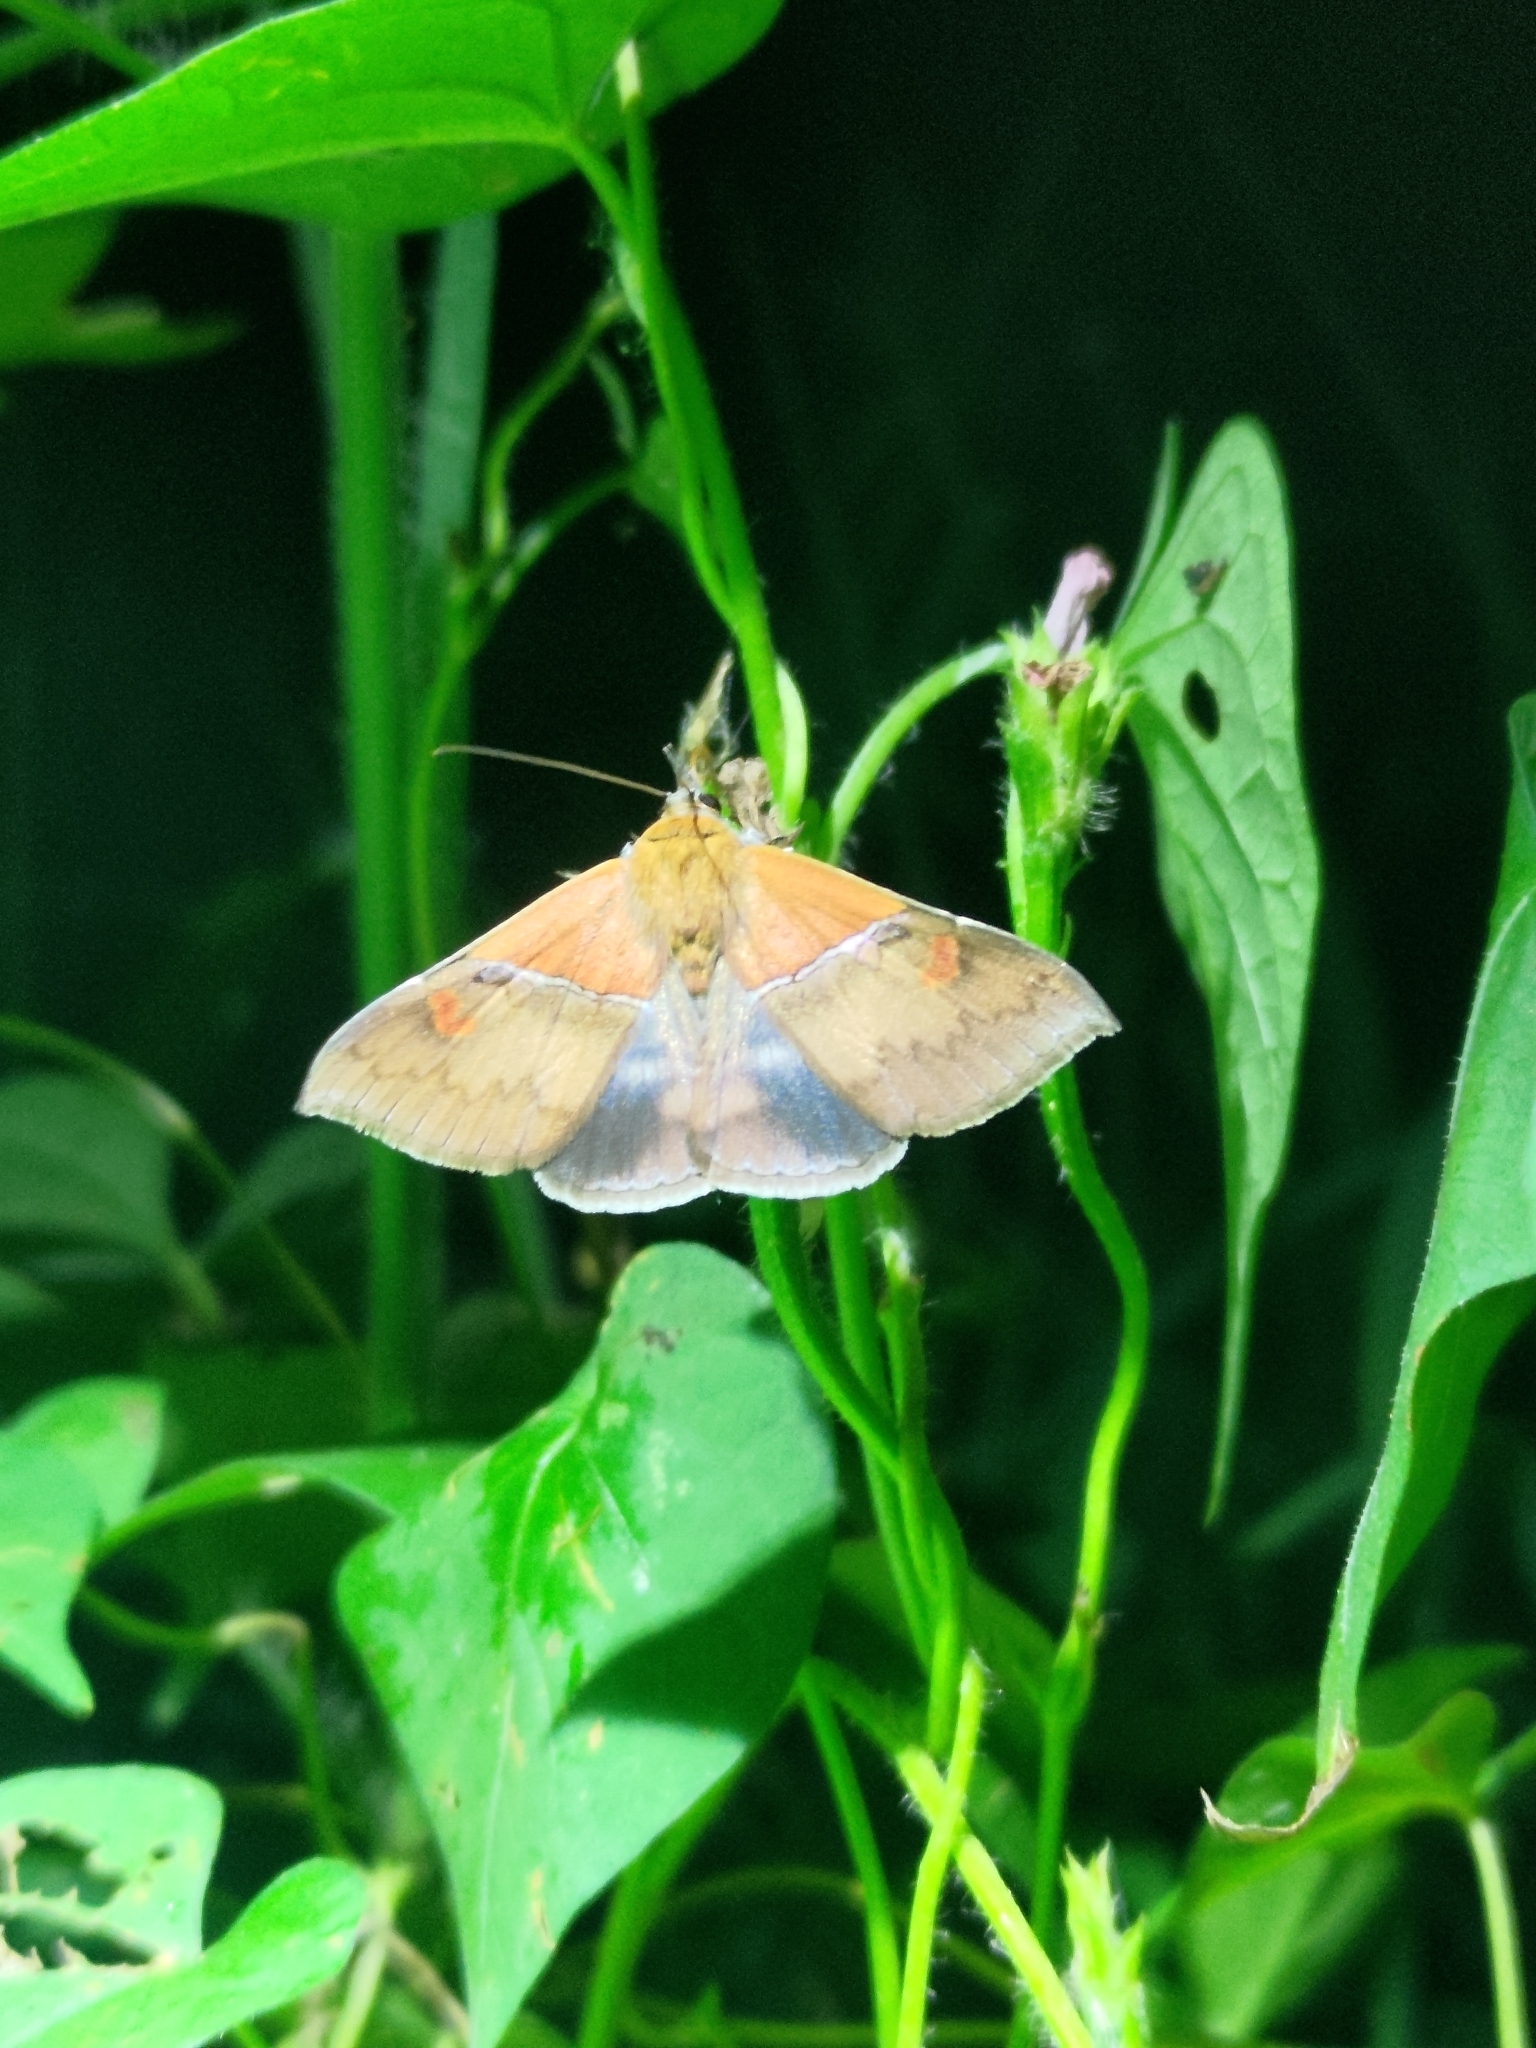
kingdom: Animalia
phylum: Arthropoda
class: Insecta
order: Lepidoptera
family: Erebidae
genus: Sympis
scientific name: Sympis rufibasis
